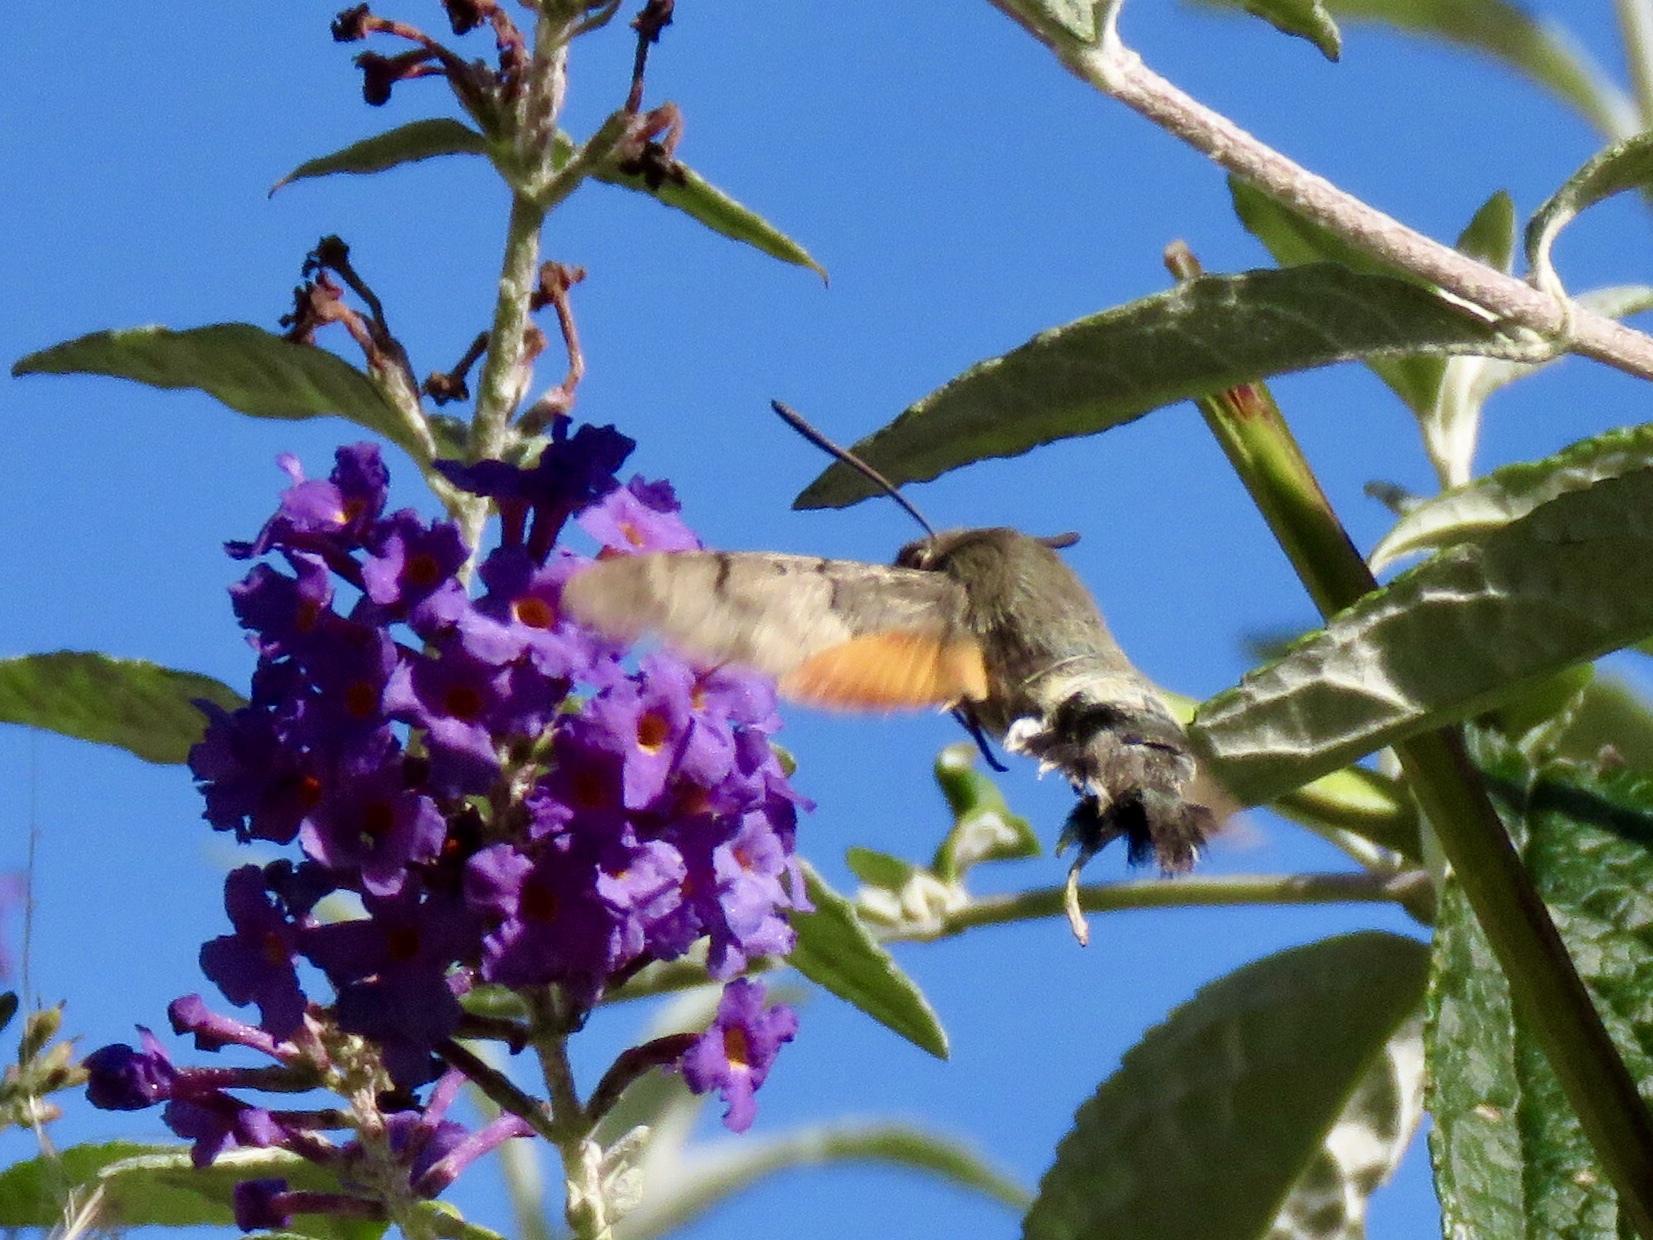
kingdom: Animalia
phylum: Arthropoda
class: Insecta
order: Lepidoptera
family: Sphingidae
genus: Macroglossum
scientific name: Macroglossum stellatarum
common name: Humming-bird hawk-moth
